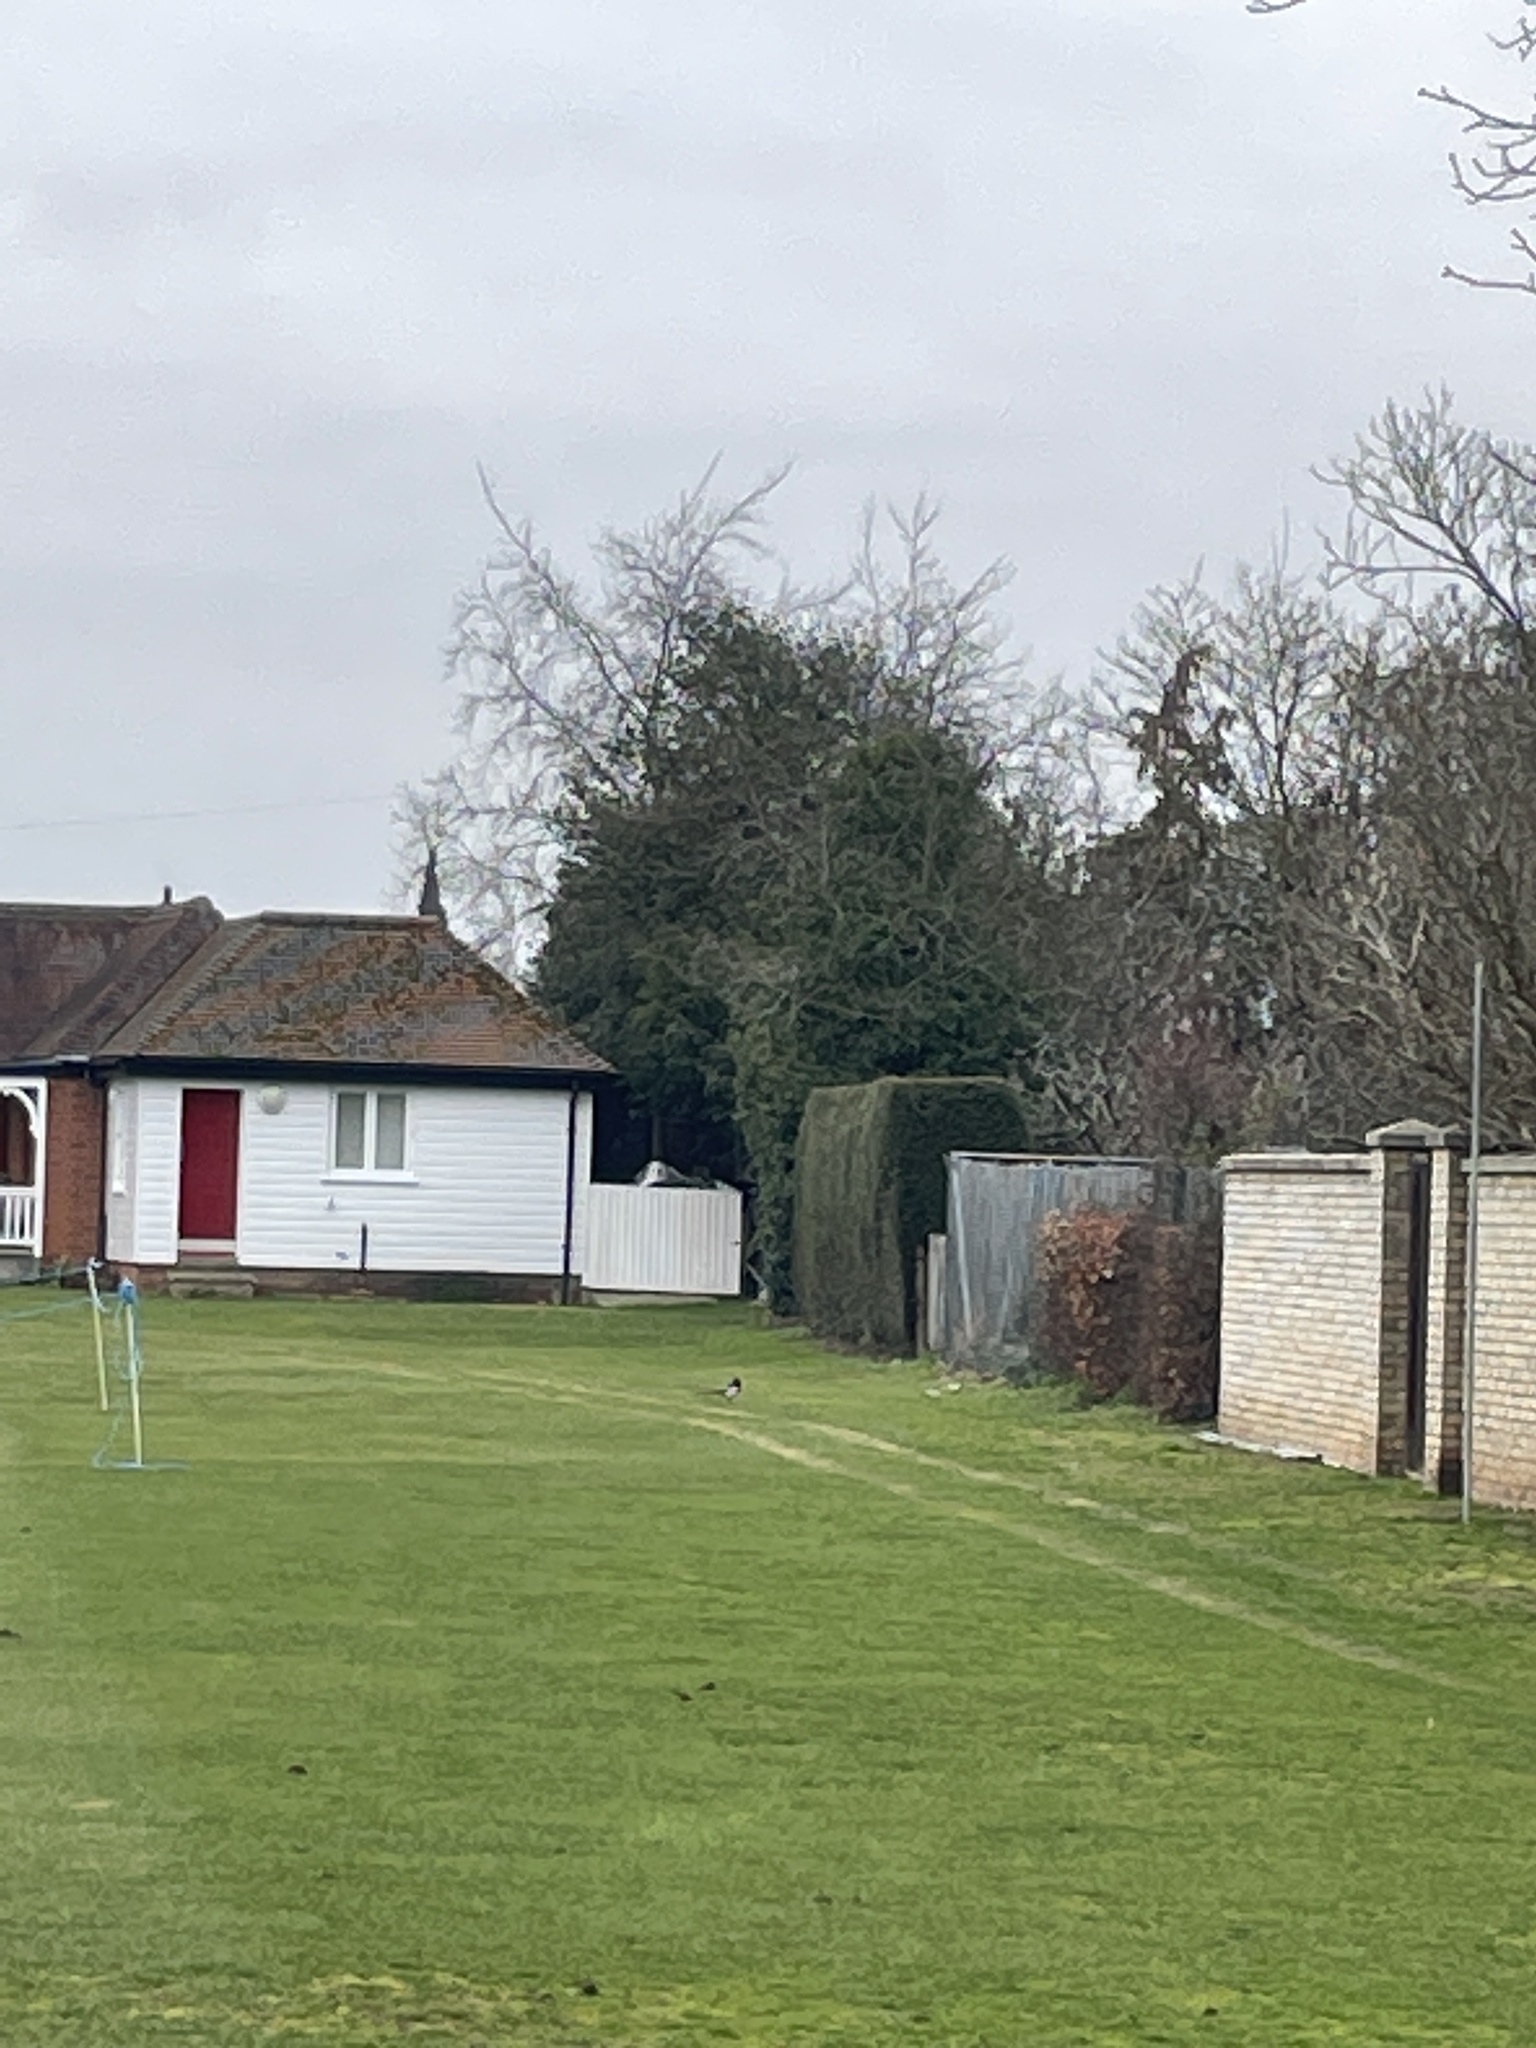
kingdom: Animalia
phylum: Chordata
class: Aves
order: Passeriformes
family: Corvidae
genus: Pica
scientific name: Pica pica
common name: Eurasian magpie
